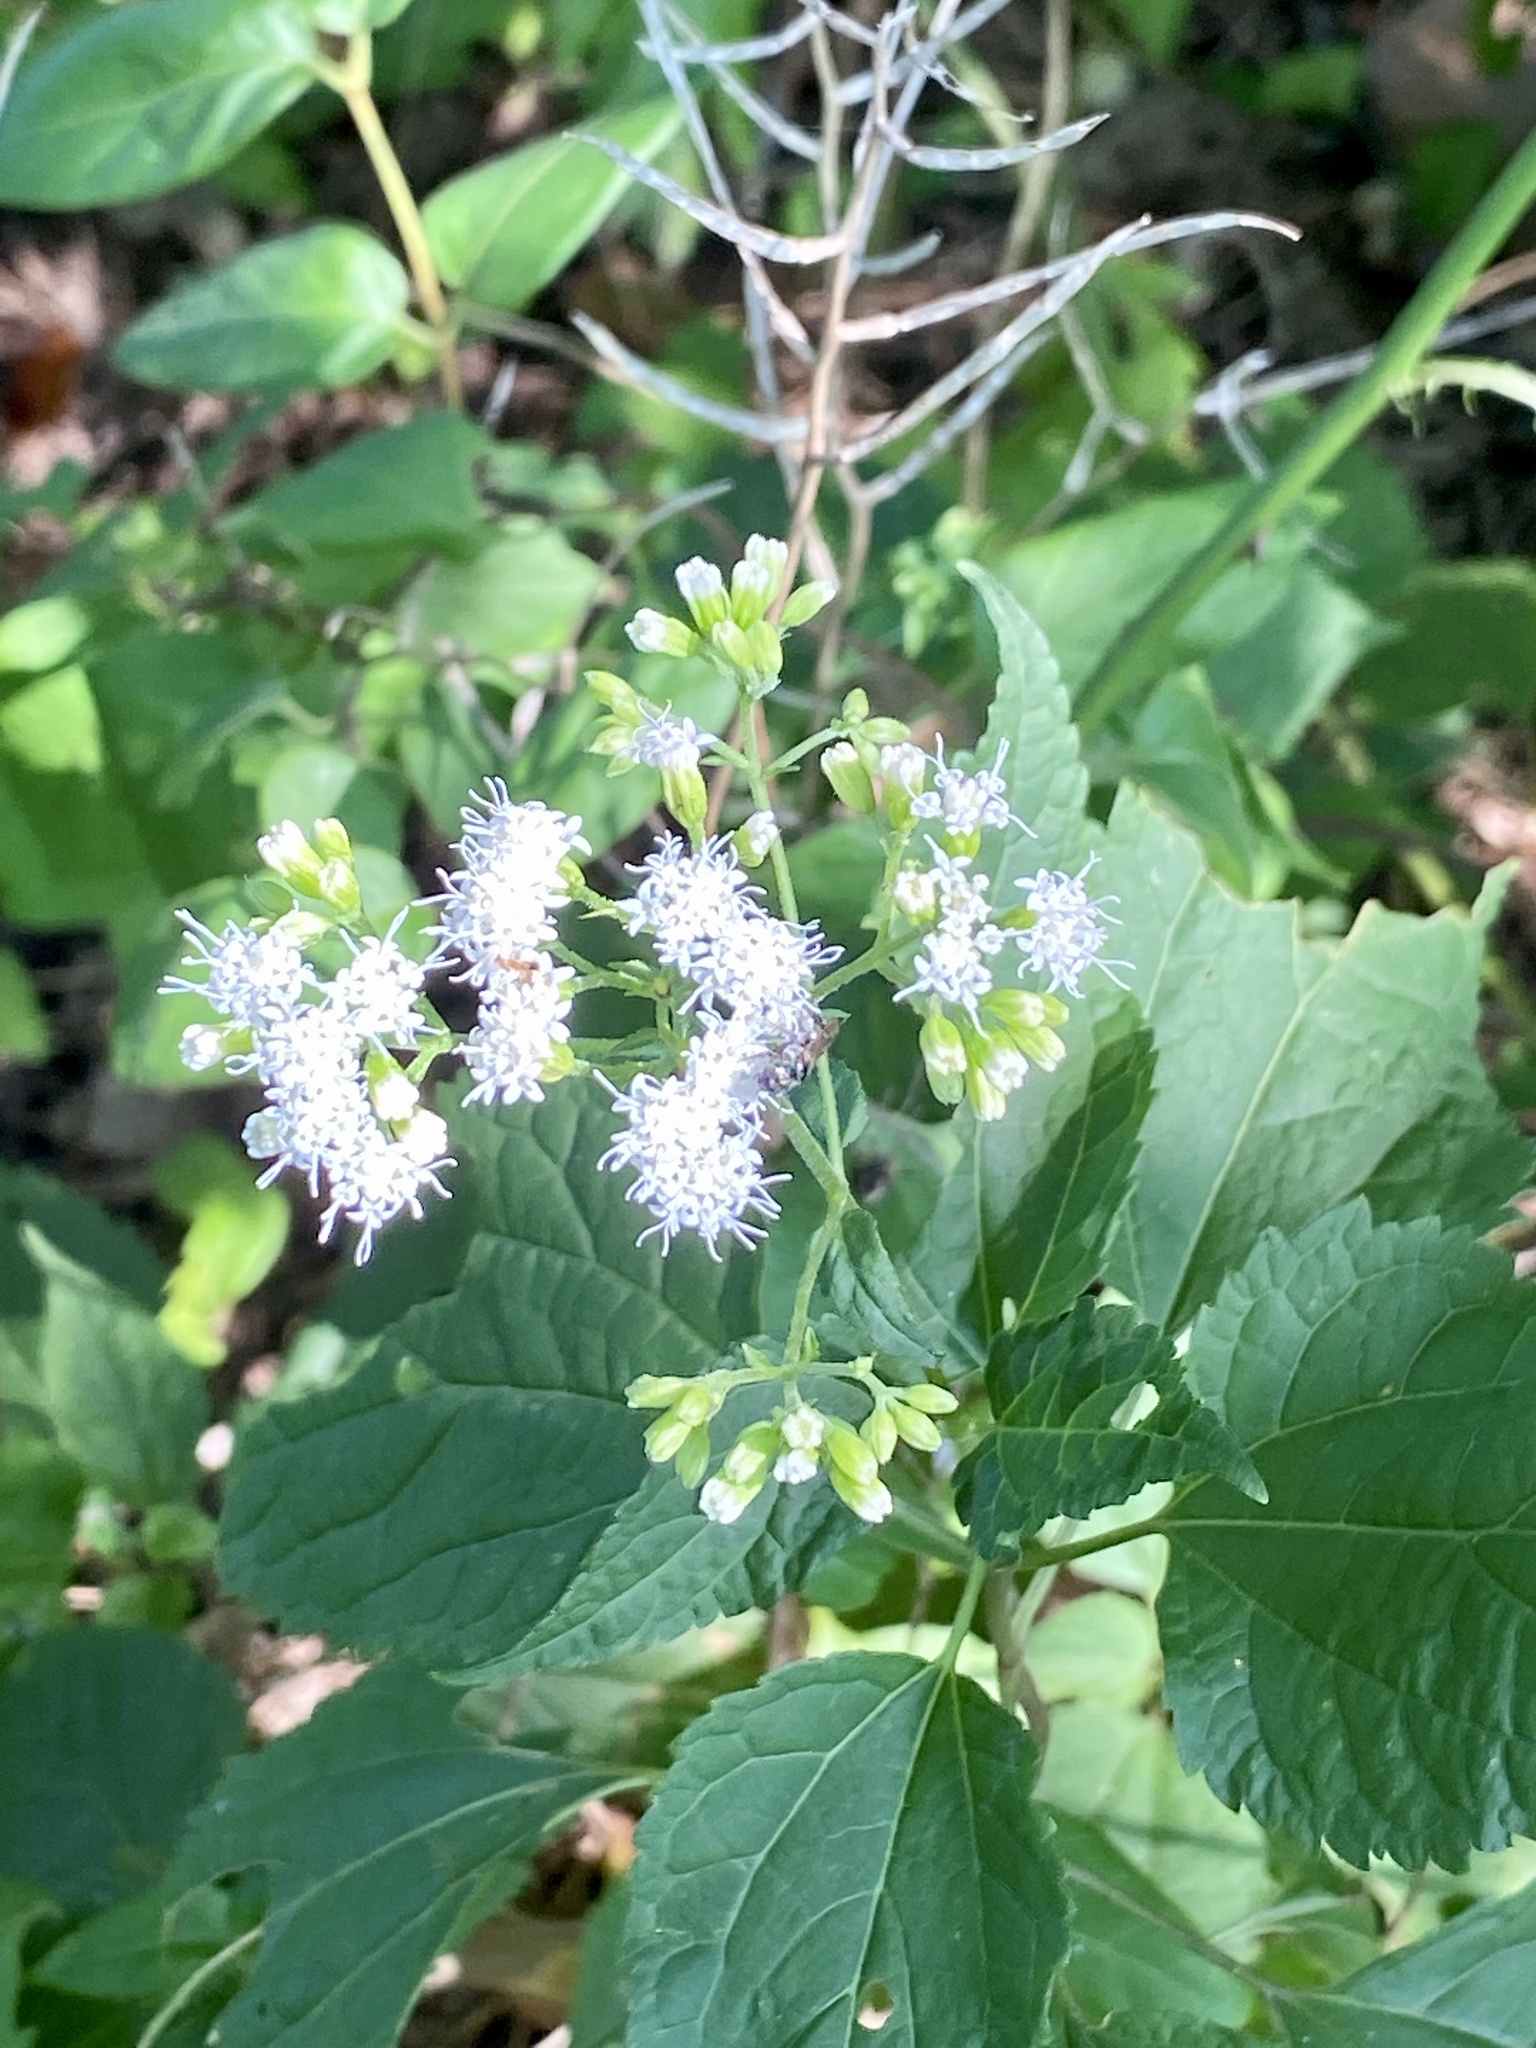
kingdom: Plantae
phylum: Tracheophyta
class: Magnoliopsida
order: Asterales
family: Asteraceae
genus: Ageratina
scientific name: Ageratina altissima
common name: White snakeroot
